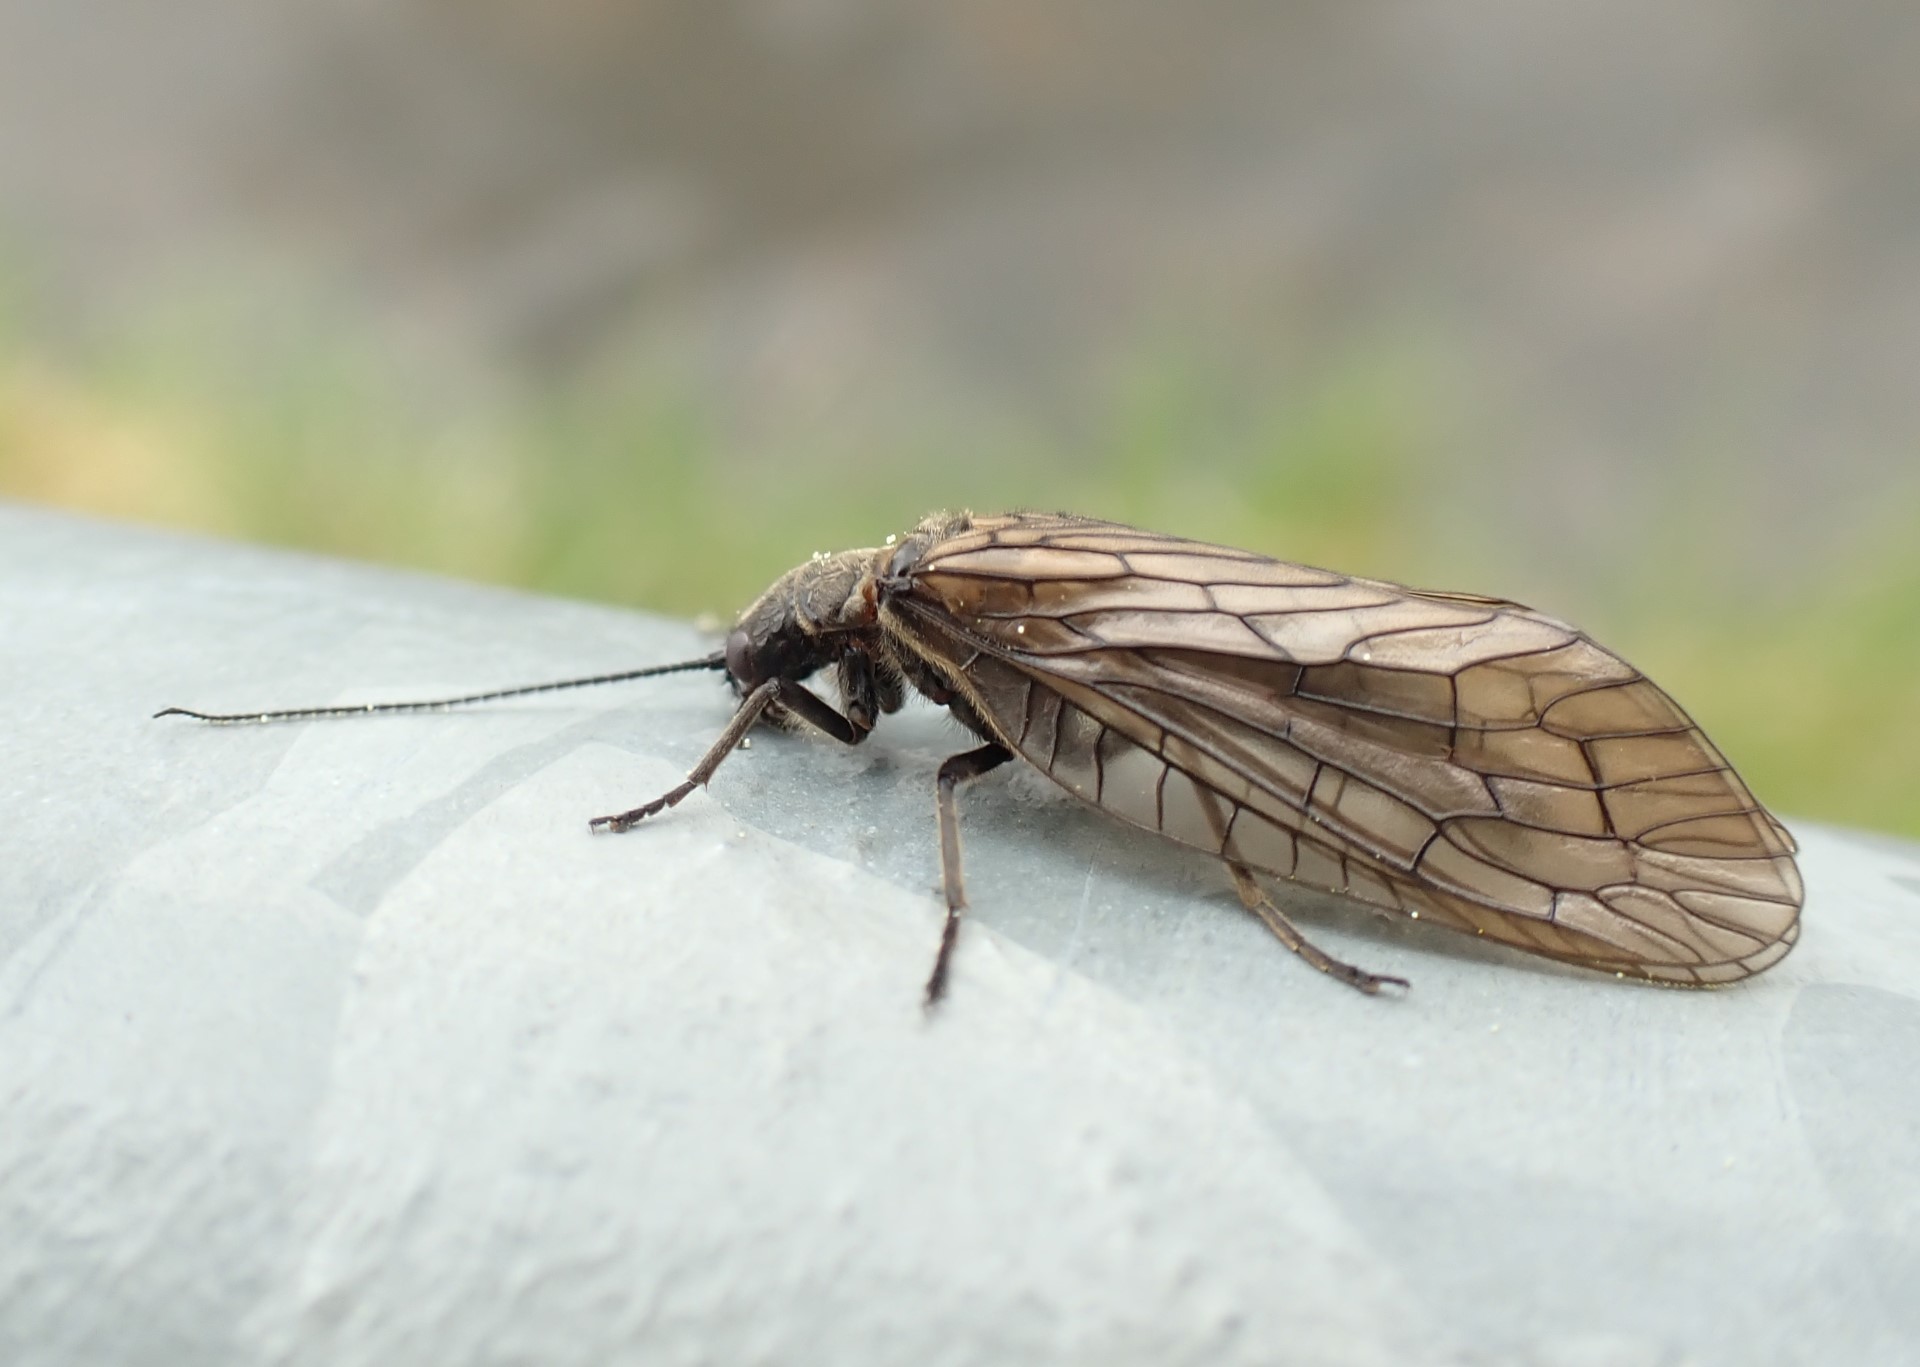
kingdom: Animalia
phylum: Arthropoda
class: Insecta
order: Megaloptera
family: Sialidae
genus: Sialis
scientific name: Sialis
